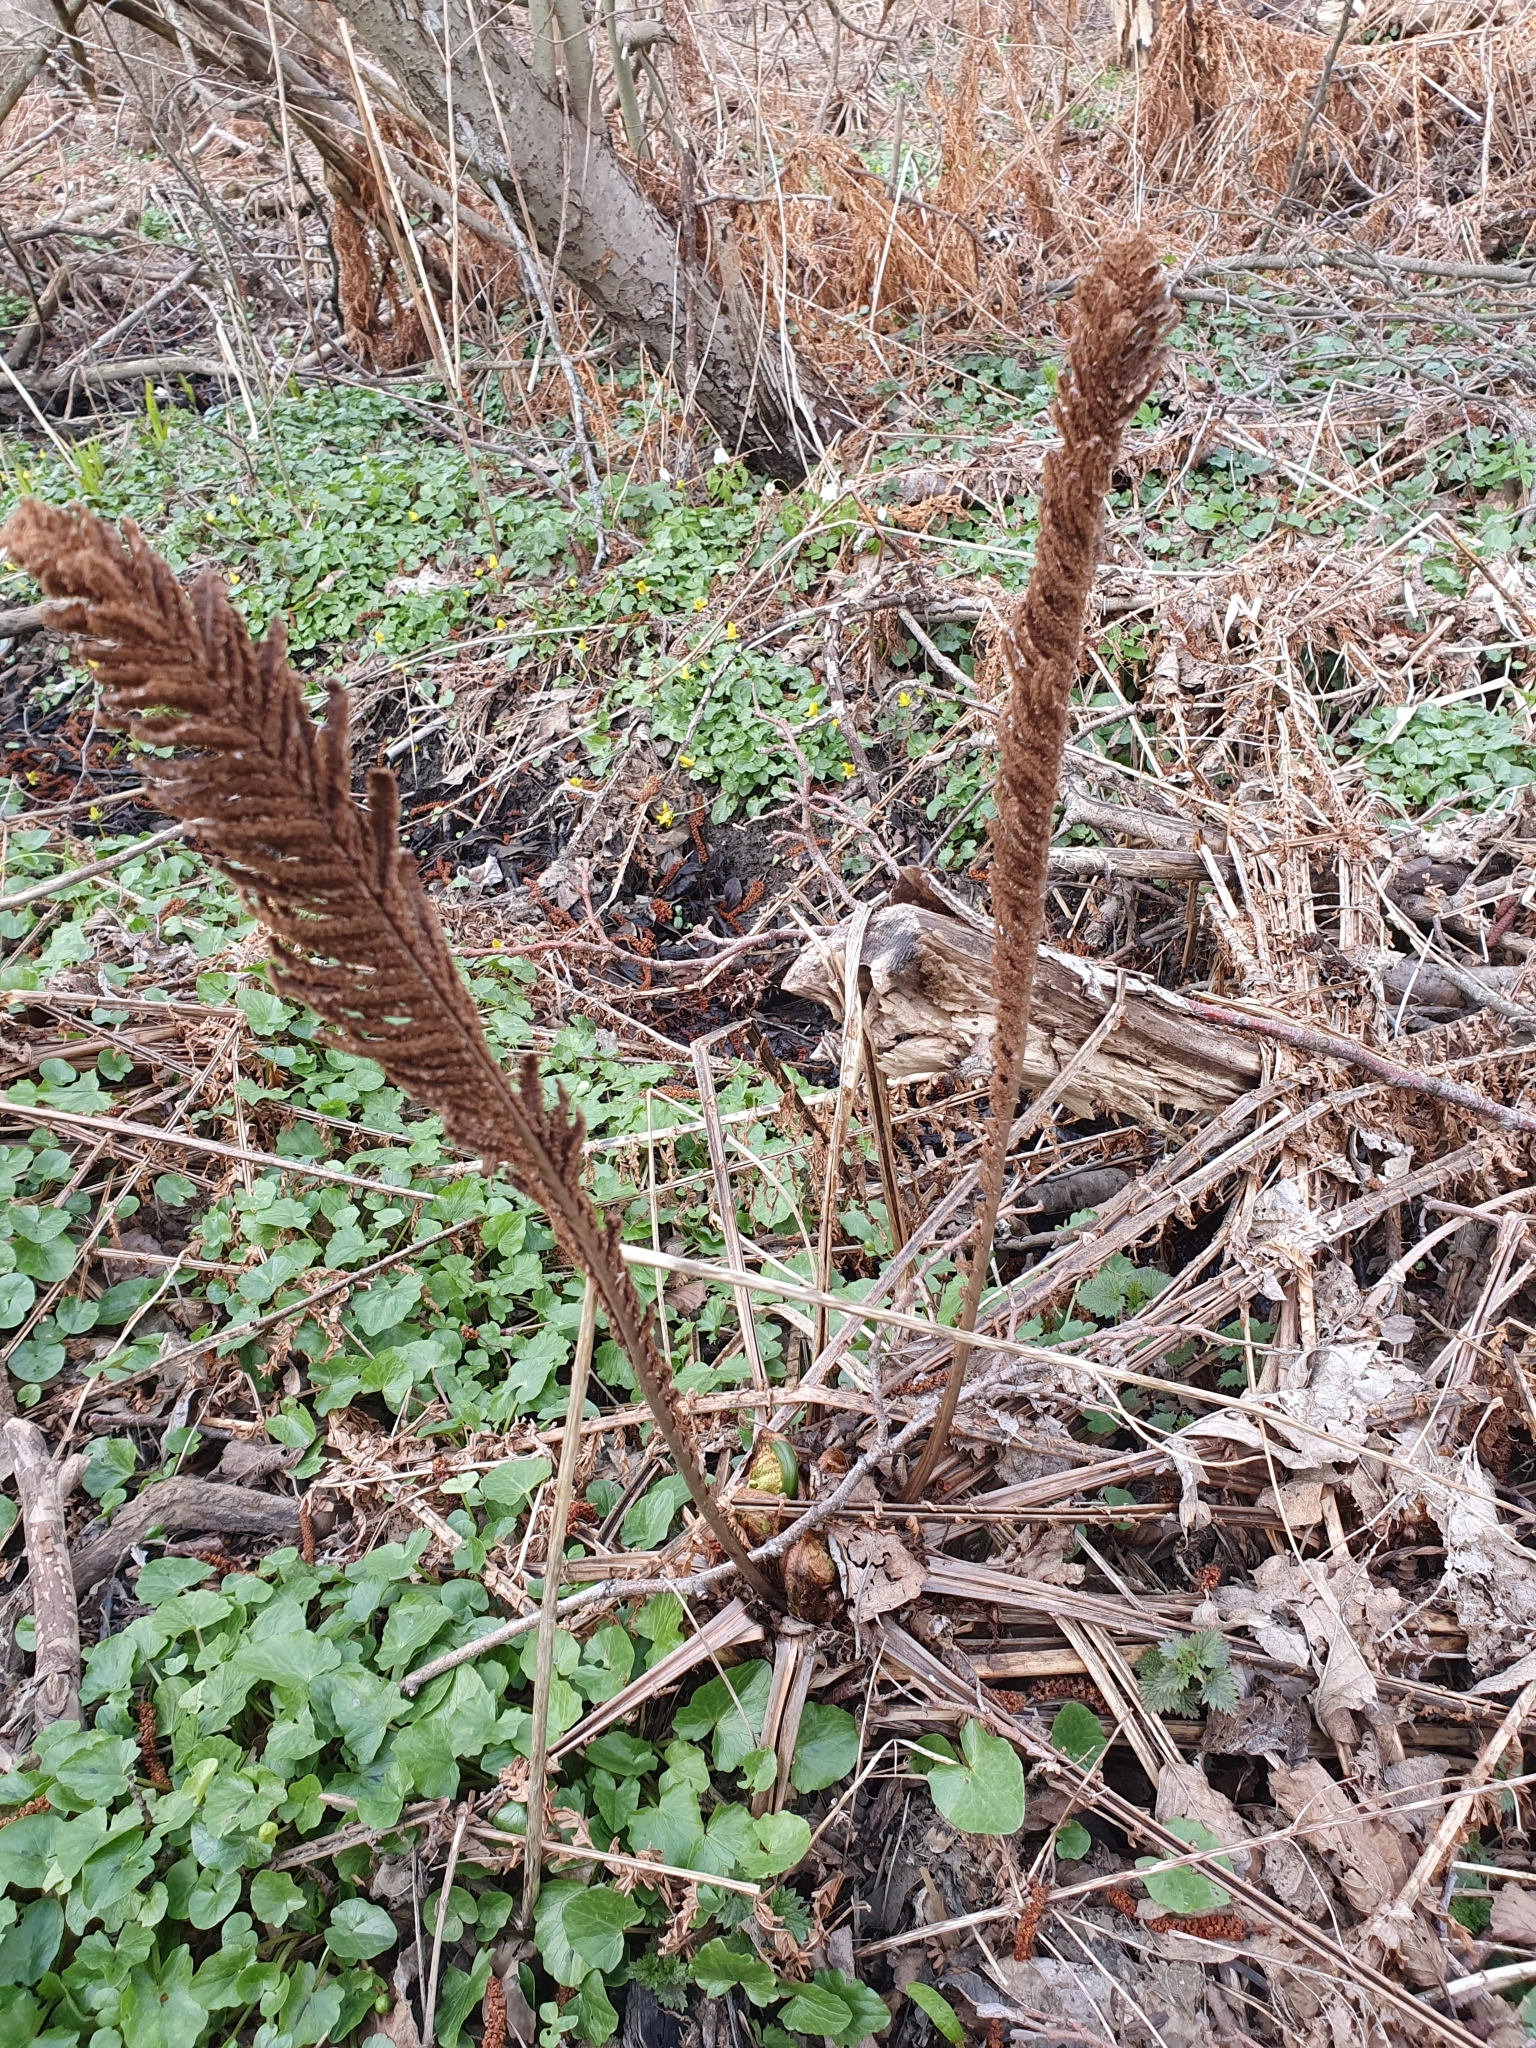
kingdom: Plantae
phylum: Tracheophyta
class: Polypodiopsida
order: Polypodiales
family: Onocleaceae
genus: Matteuccia
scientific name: Matteuccia struthiopteris
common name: Ostrich fern
